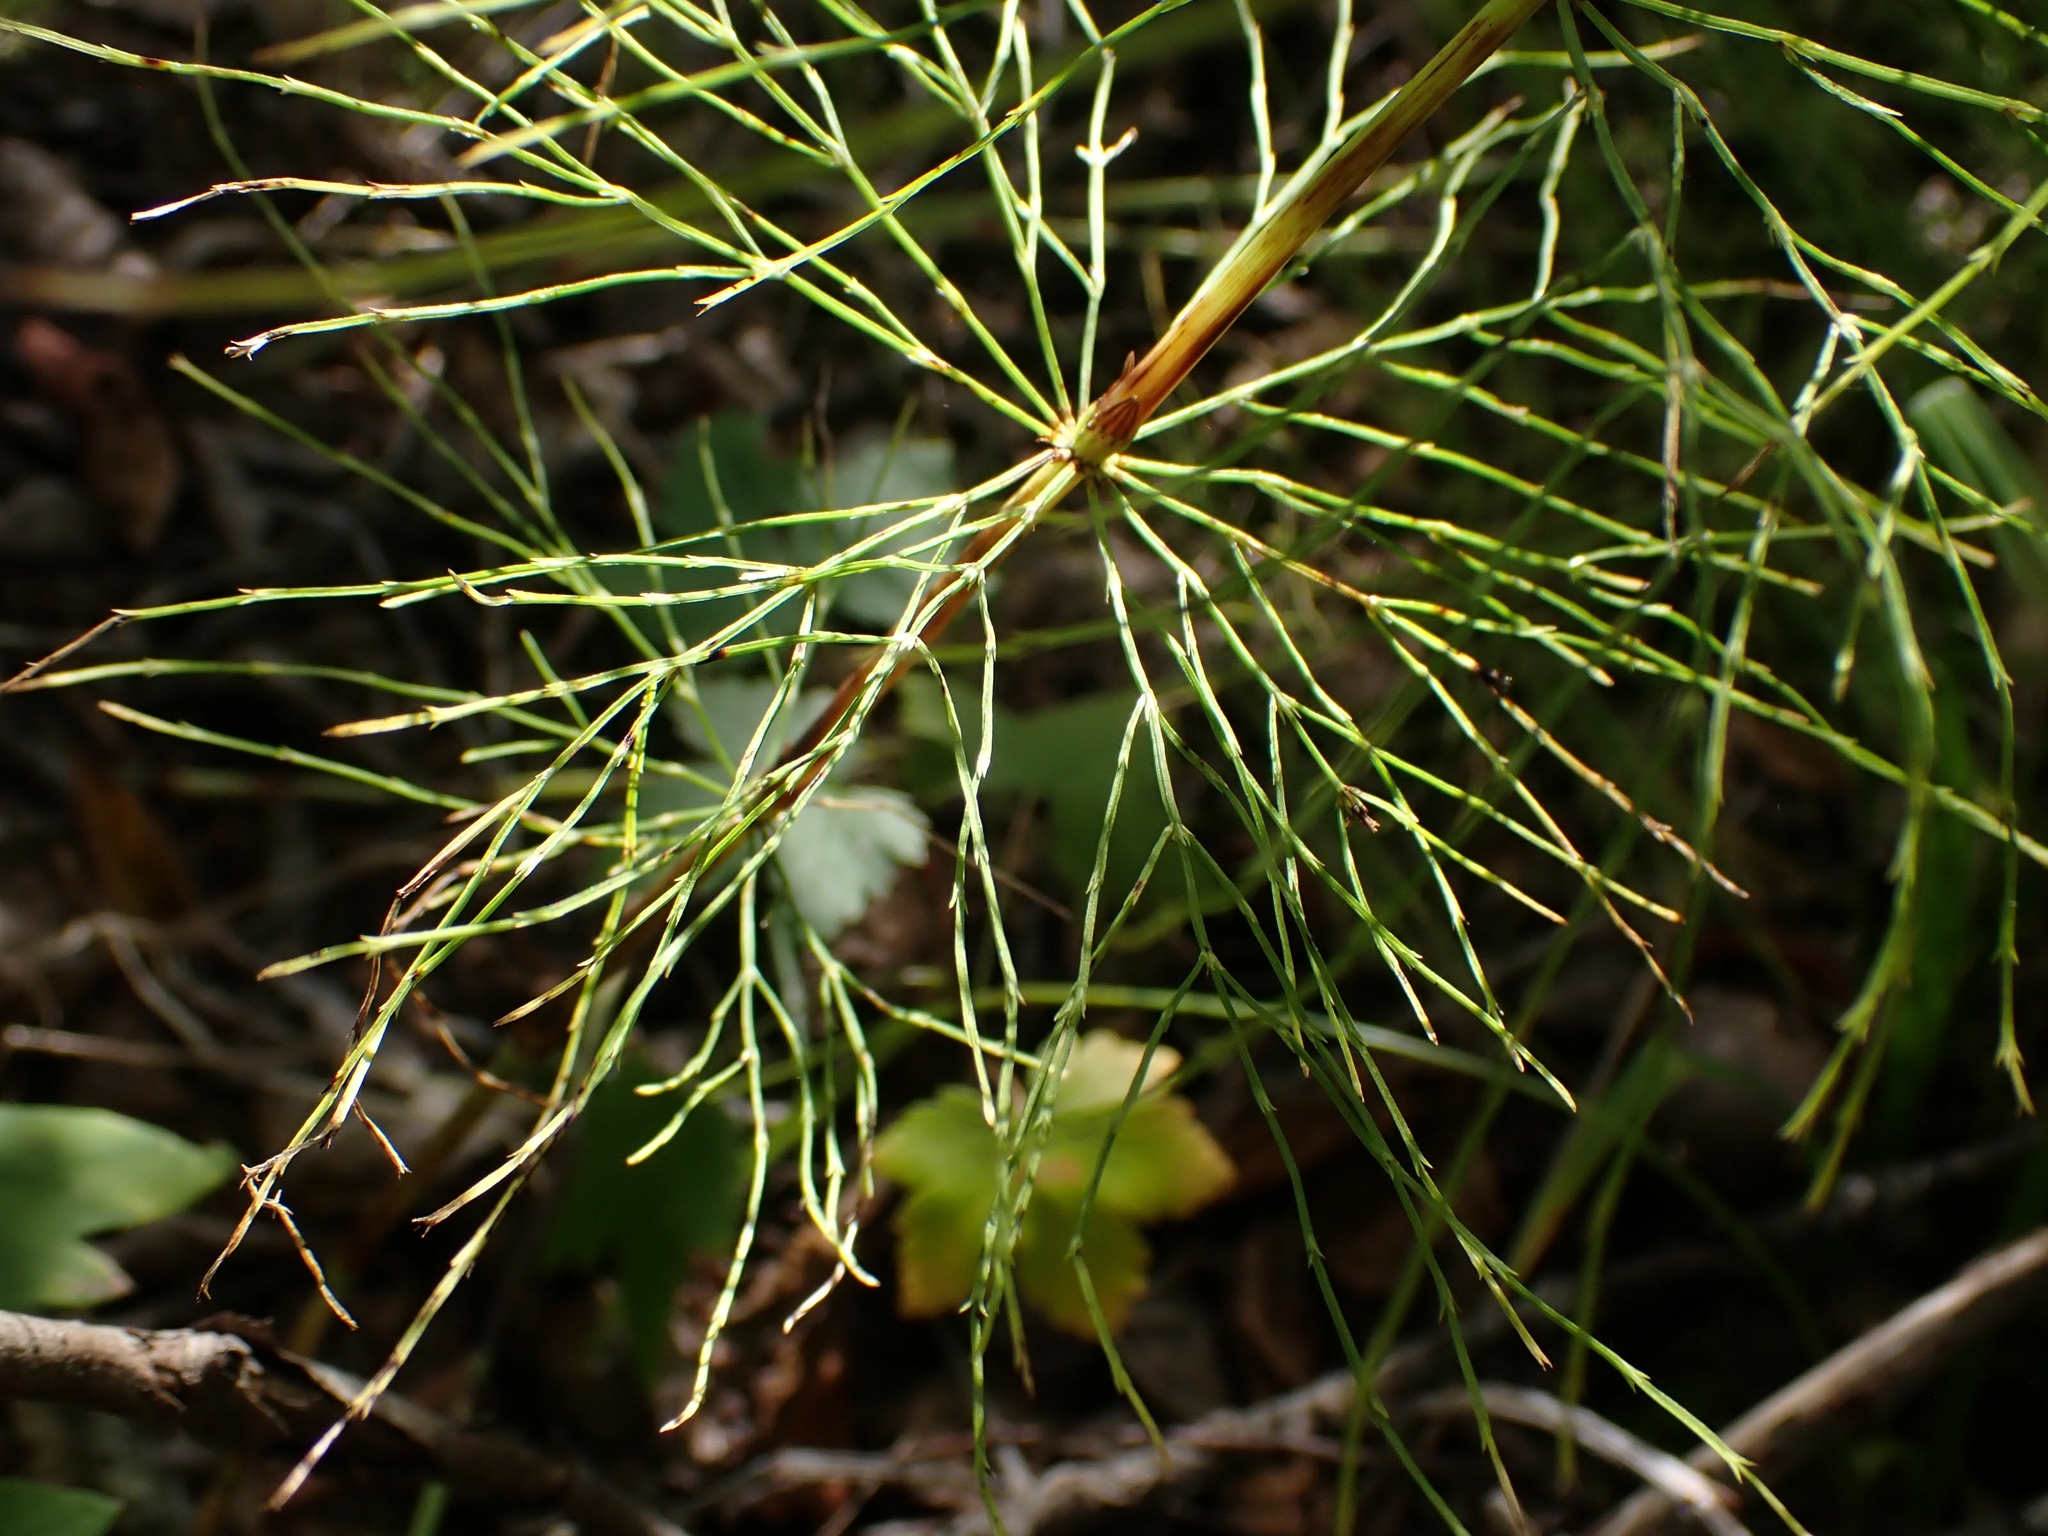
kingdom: Plantae
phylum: Tracheophyta
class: Polypodiopsida
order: Equisetales
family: Equisetaceae
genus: Equisetum
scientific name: Equisetum sylvaticum
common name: Wood horsetail
